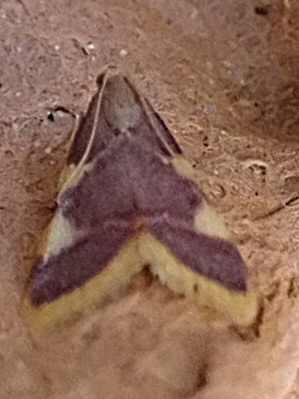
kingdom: Animalia
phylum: Arthropoda
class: Insecta
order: Lepidoptera
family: Pyralidae
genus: Hypsopygia
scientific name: Hypsopygia costalis
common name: Gold triangle
